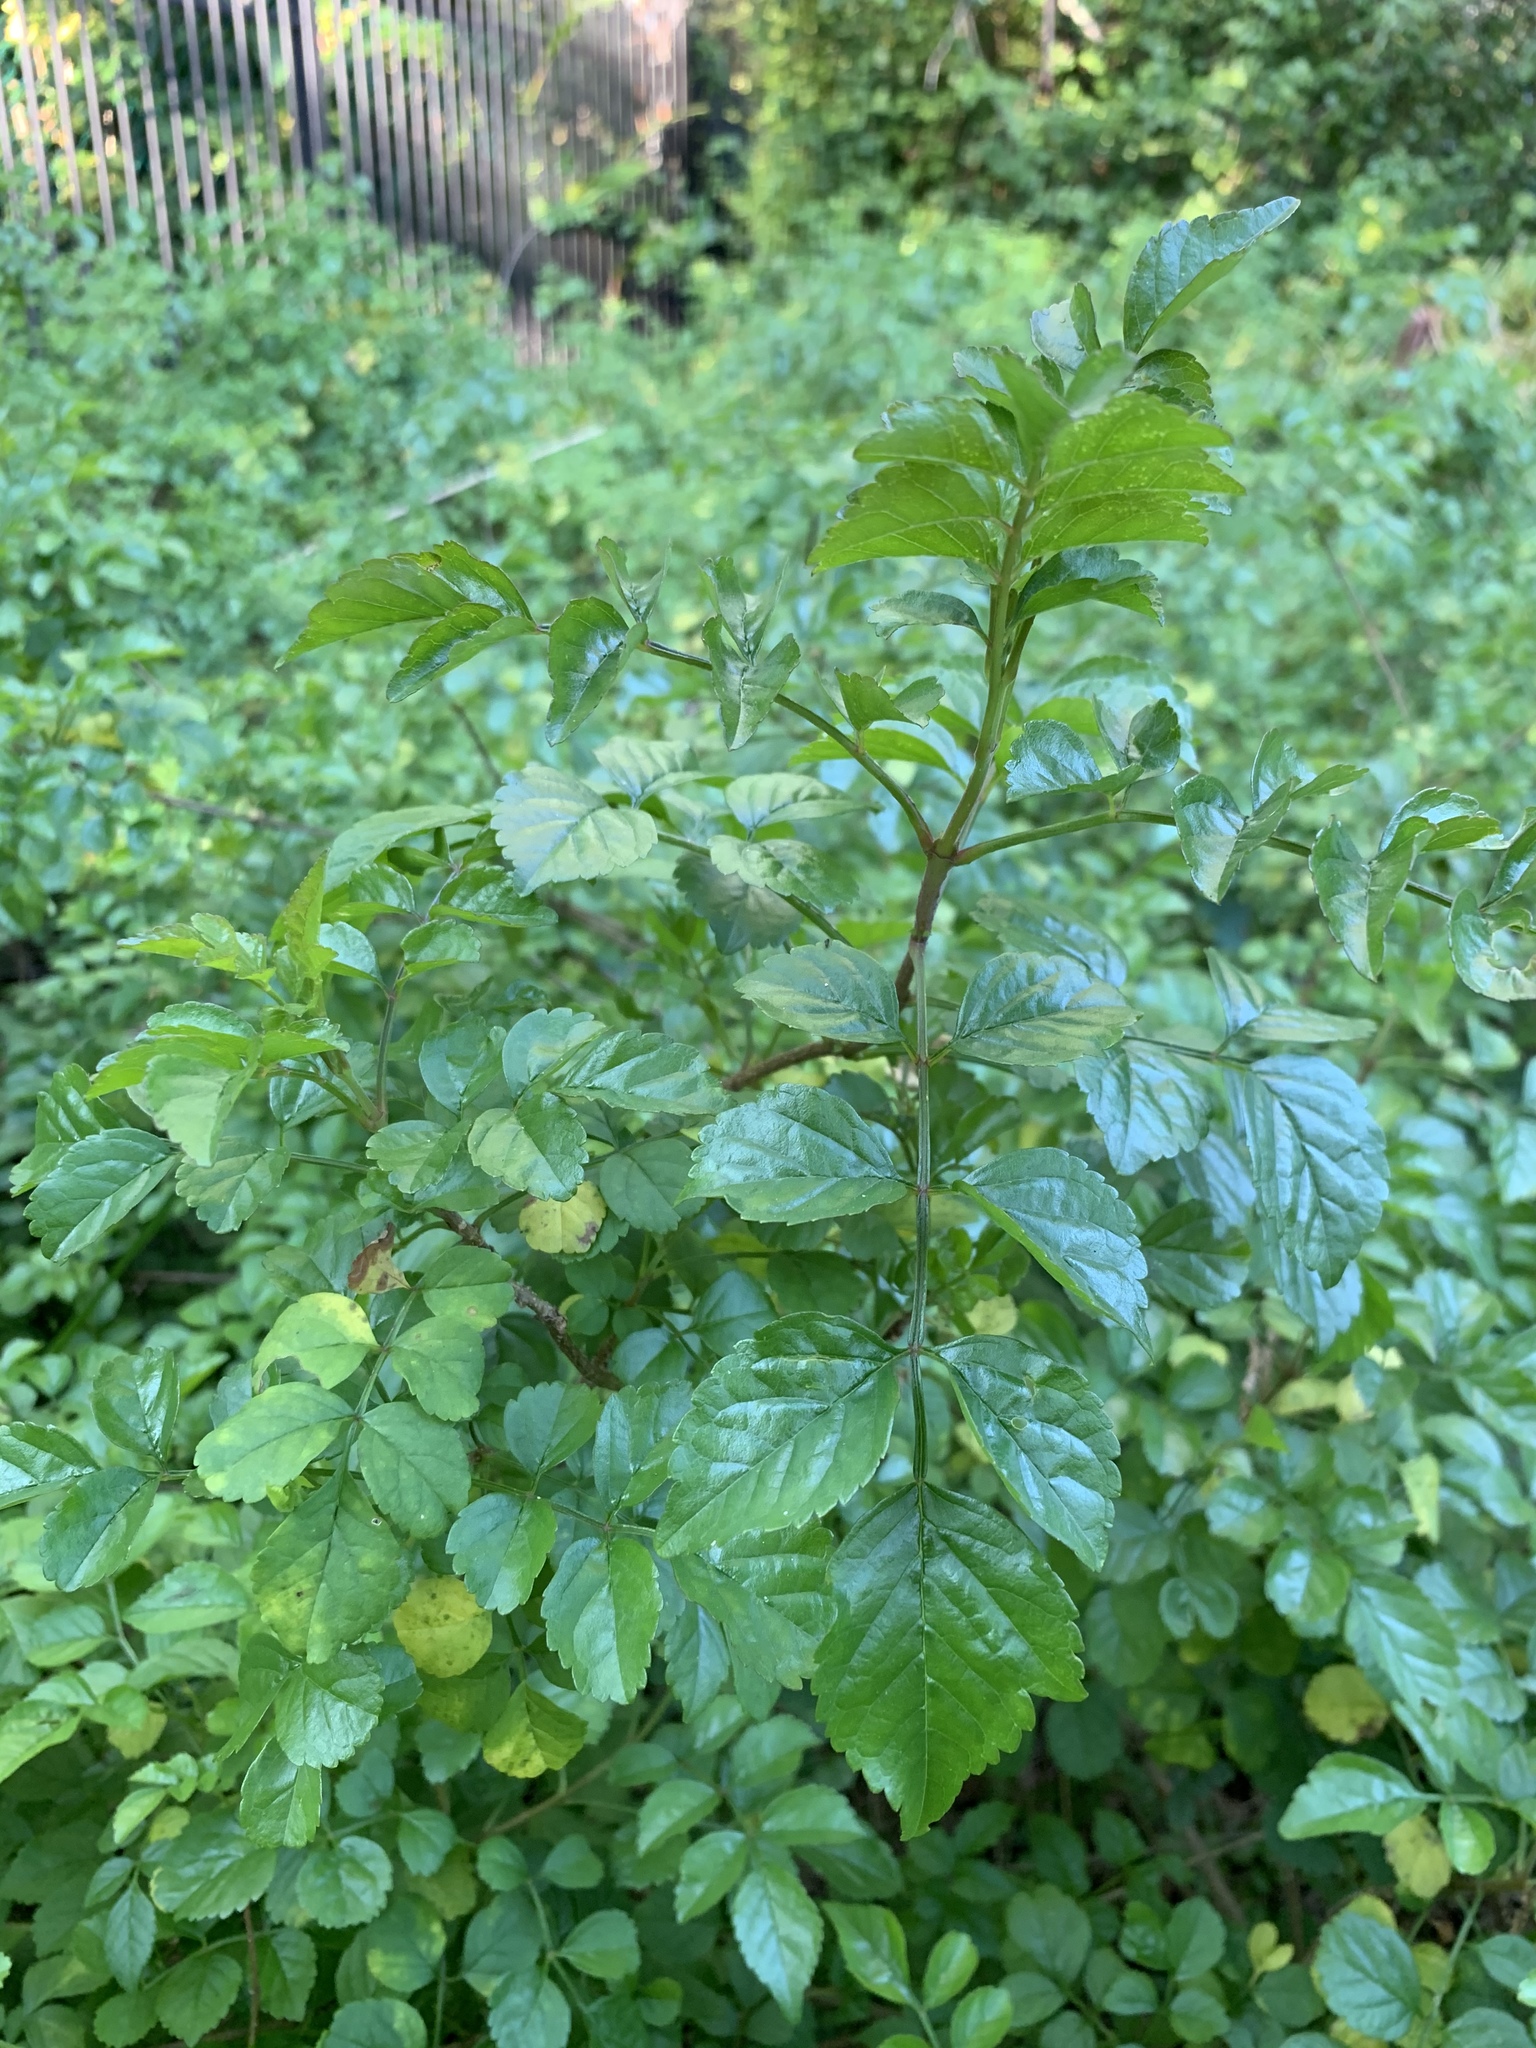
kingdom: Plantae
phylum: Tracheophyta
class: Magnoliopsida
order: Lamiales
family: Bignoniaceae
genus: Tecomaria
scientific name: Tecomaria capensis
